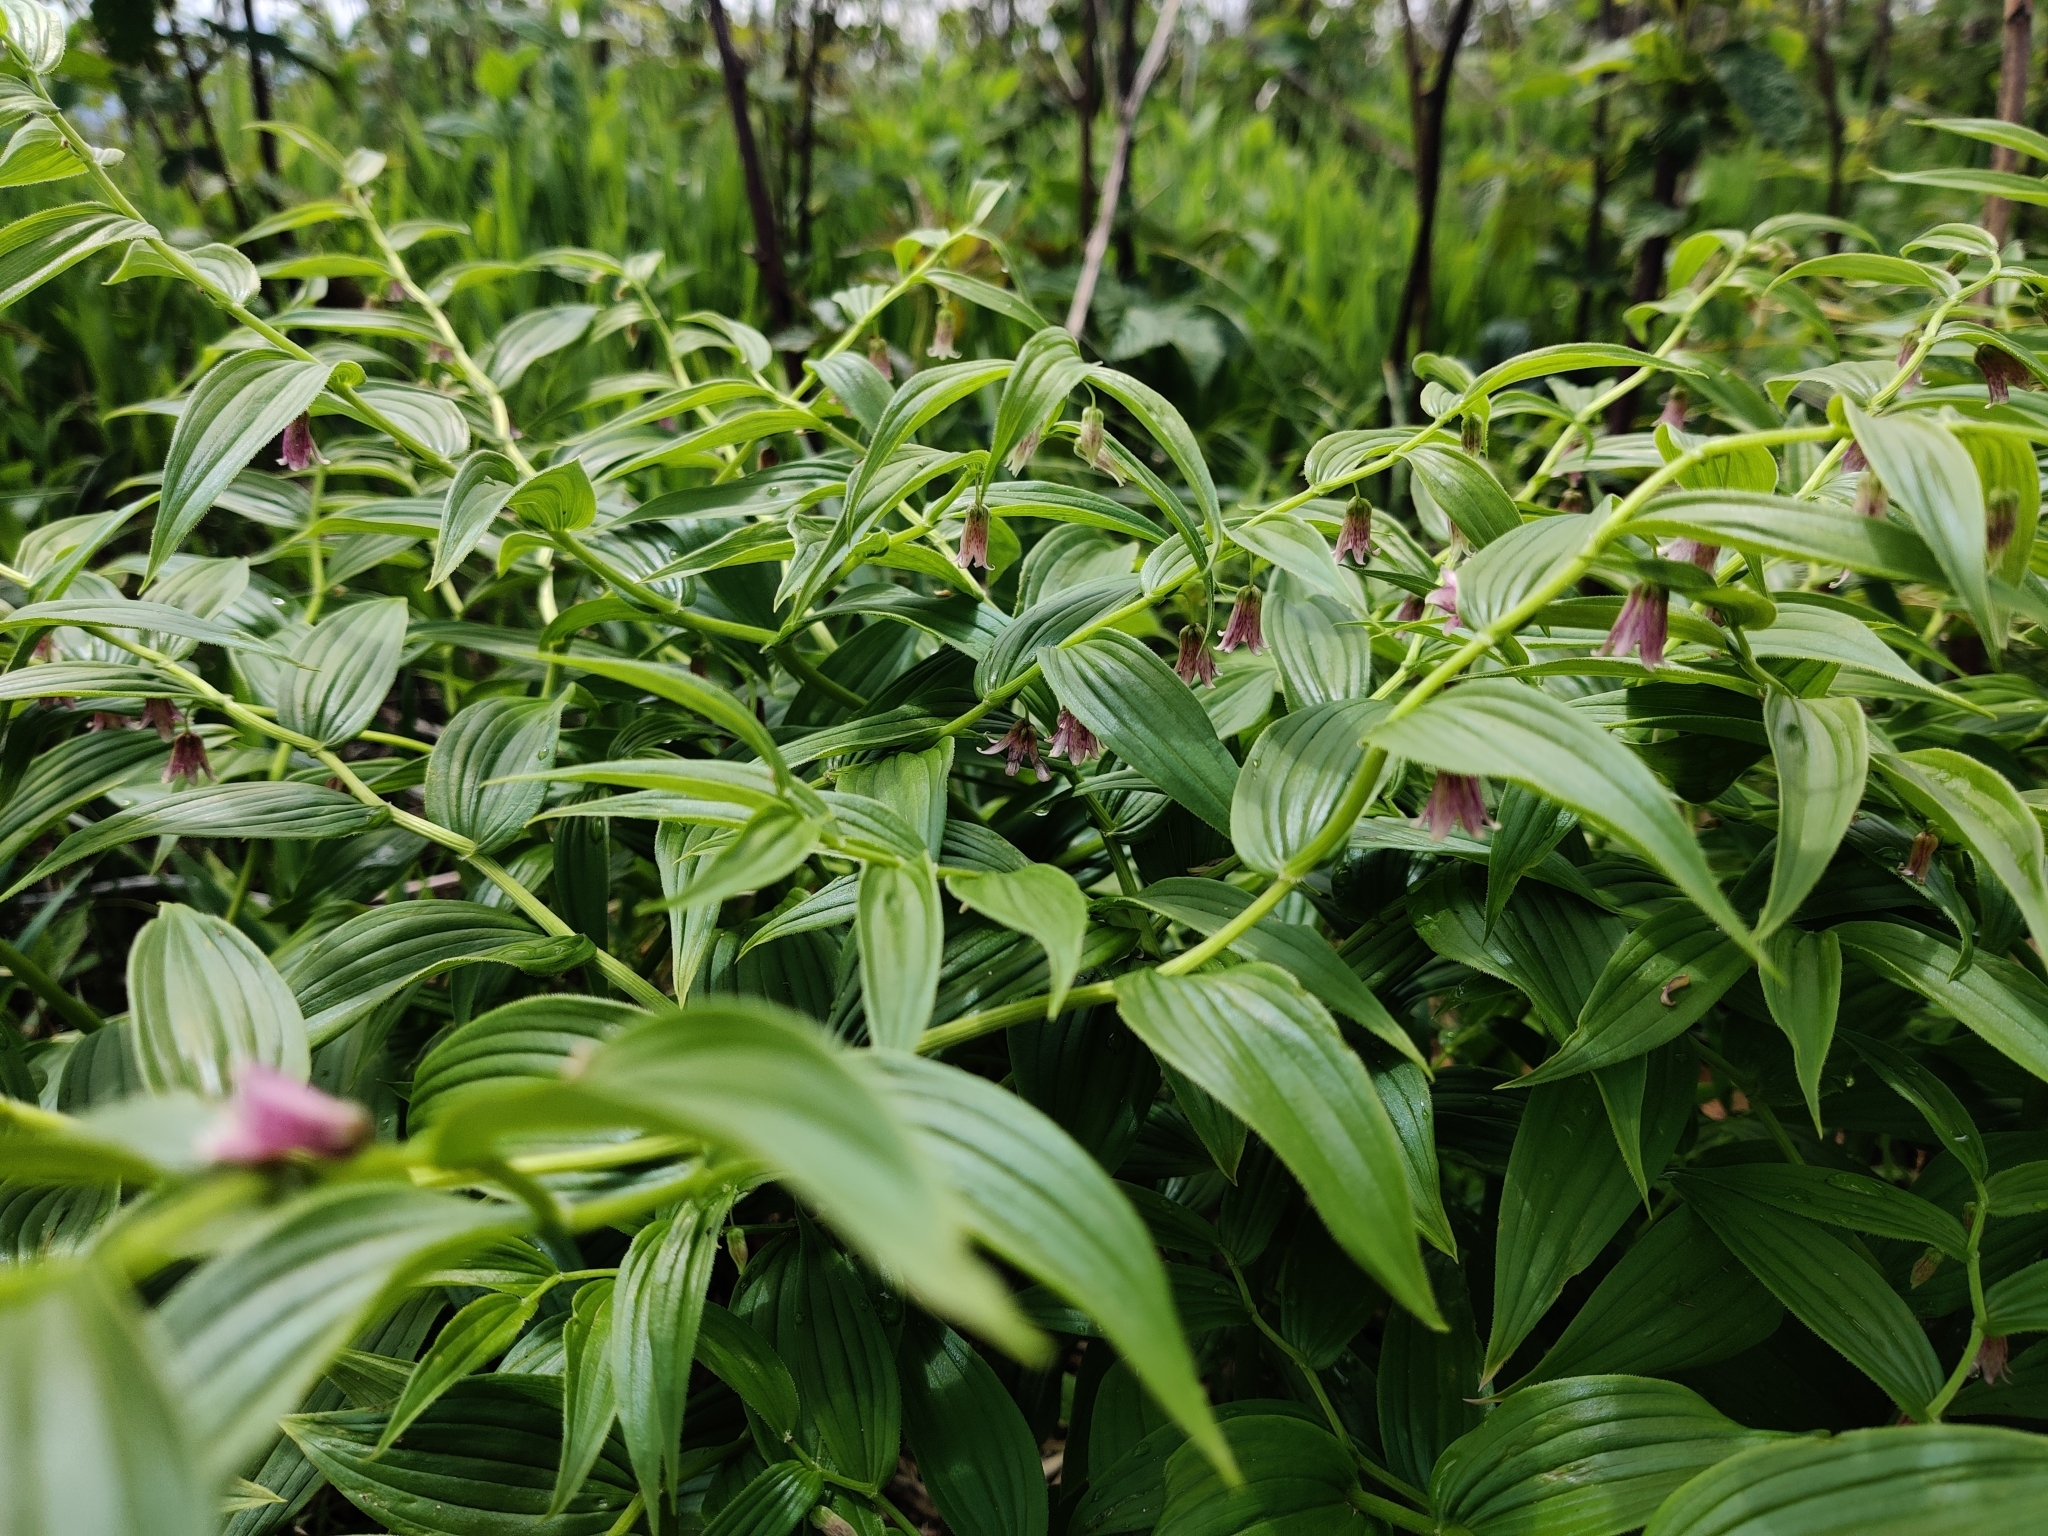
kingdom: Plantae
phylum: Tracheophyta
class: Liliopsida
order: Liliales
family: Liliaceae
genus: Streptopus
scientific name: Streptopus lanceolatus
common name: Rose mandarin
